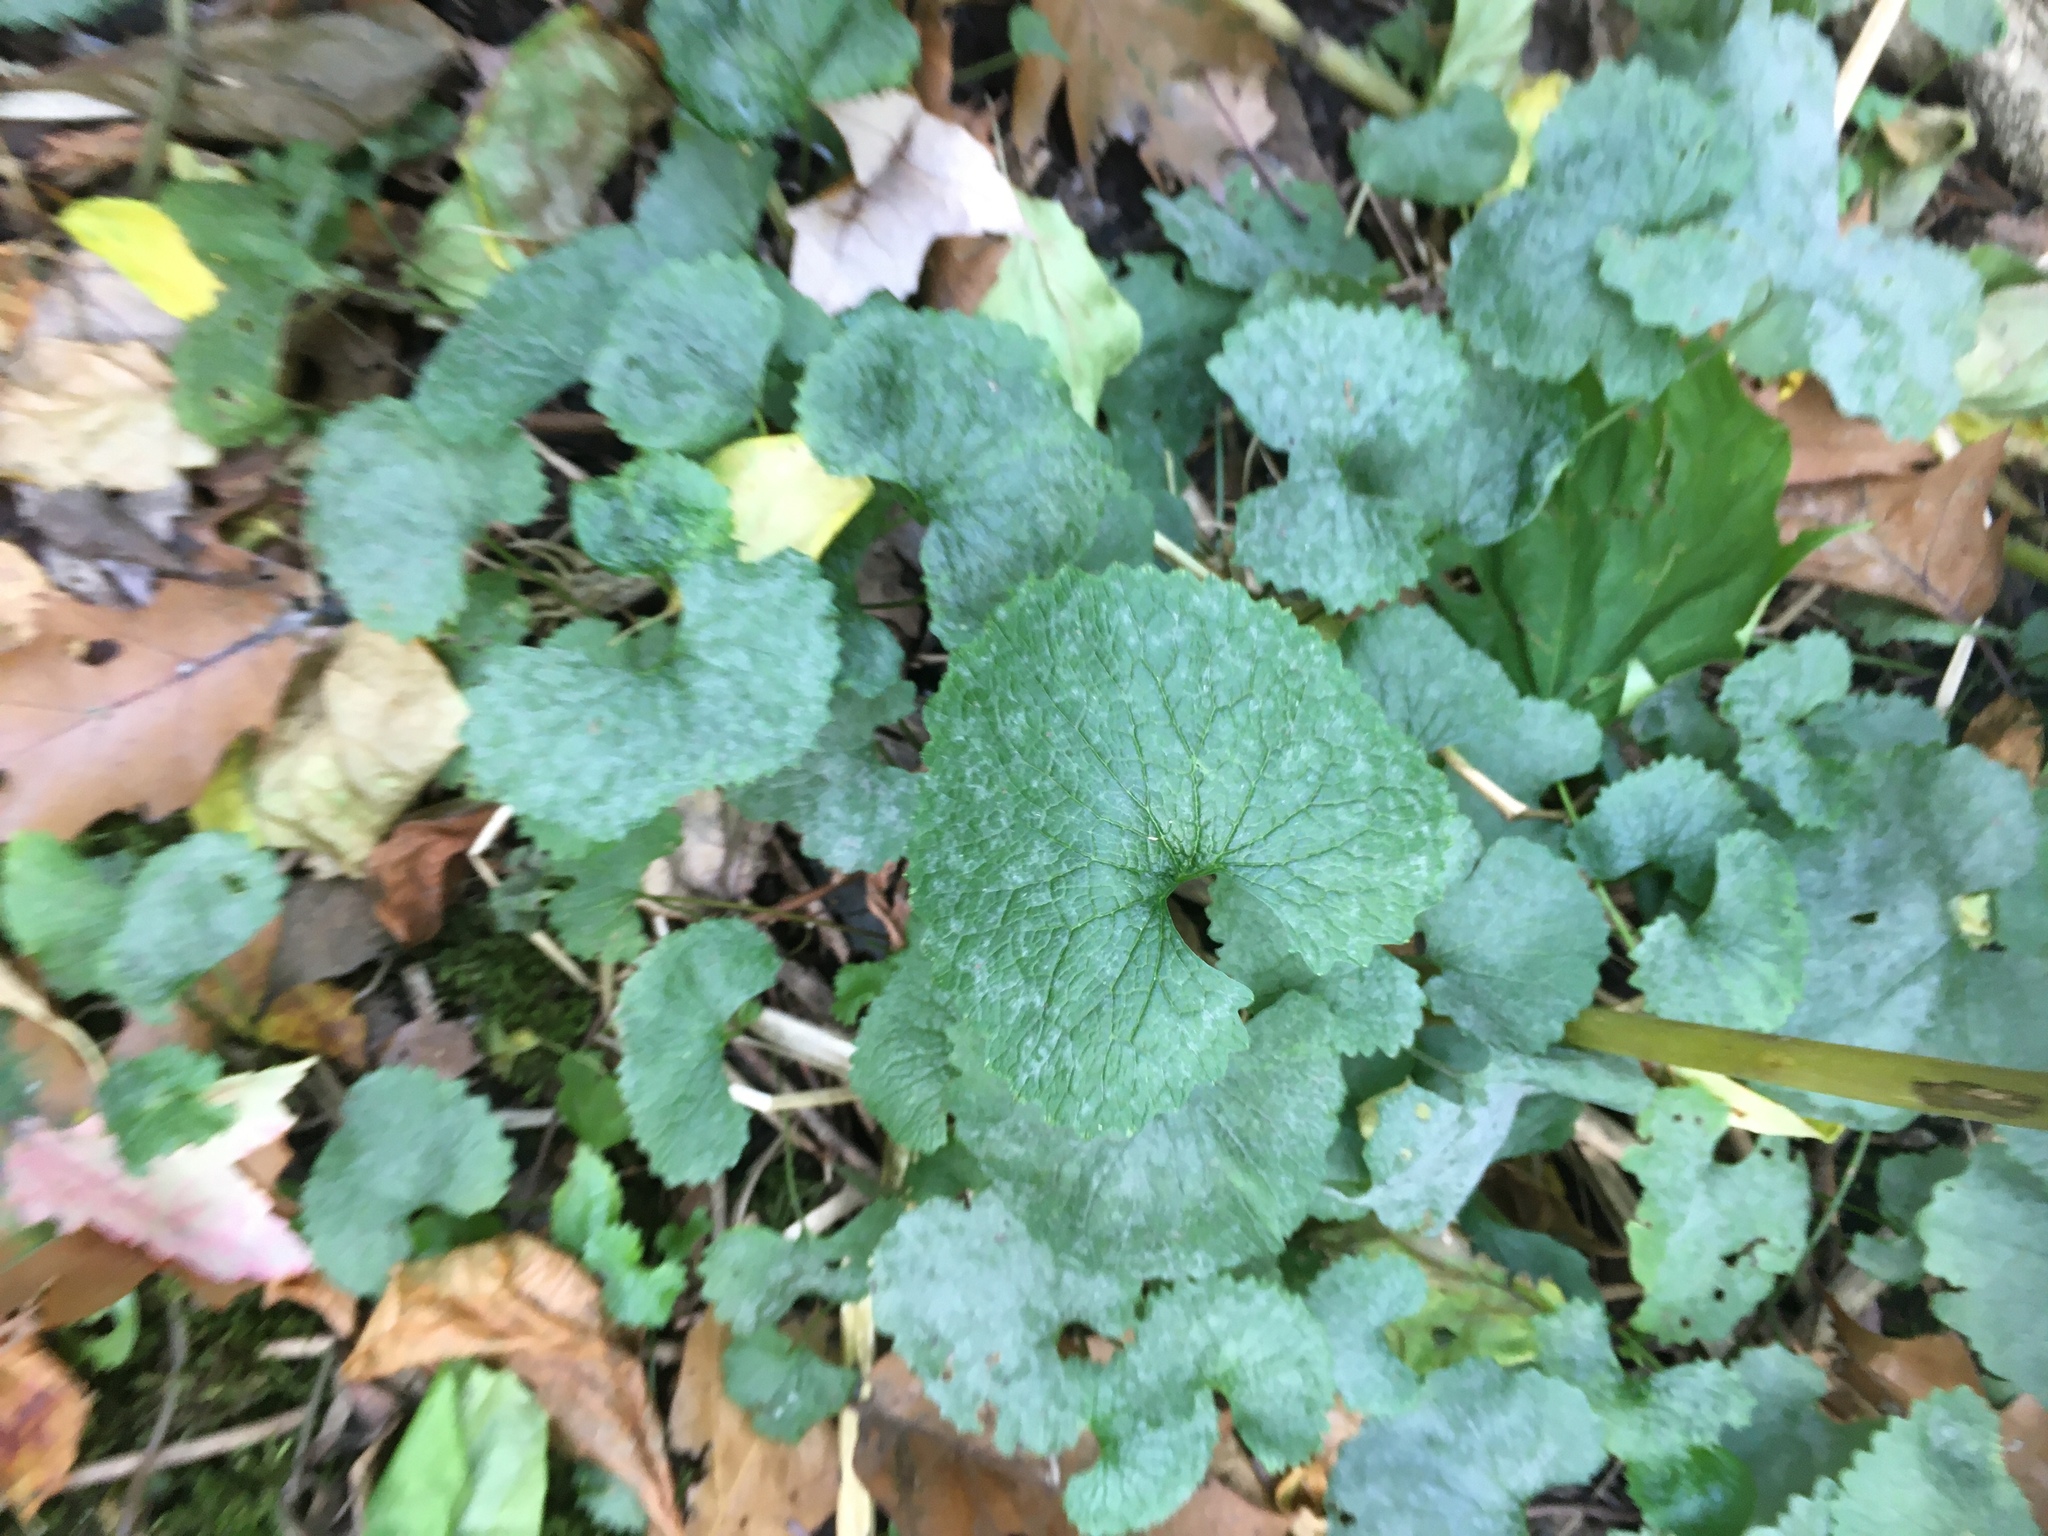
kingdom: Plantae
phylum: Tracheophyta
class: Magnoliopsida
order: Brassicales
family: Brassicaceae
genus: Alliaria
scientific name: Alliaria petiolata
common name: Garlic mustard
